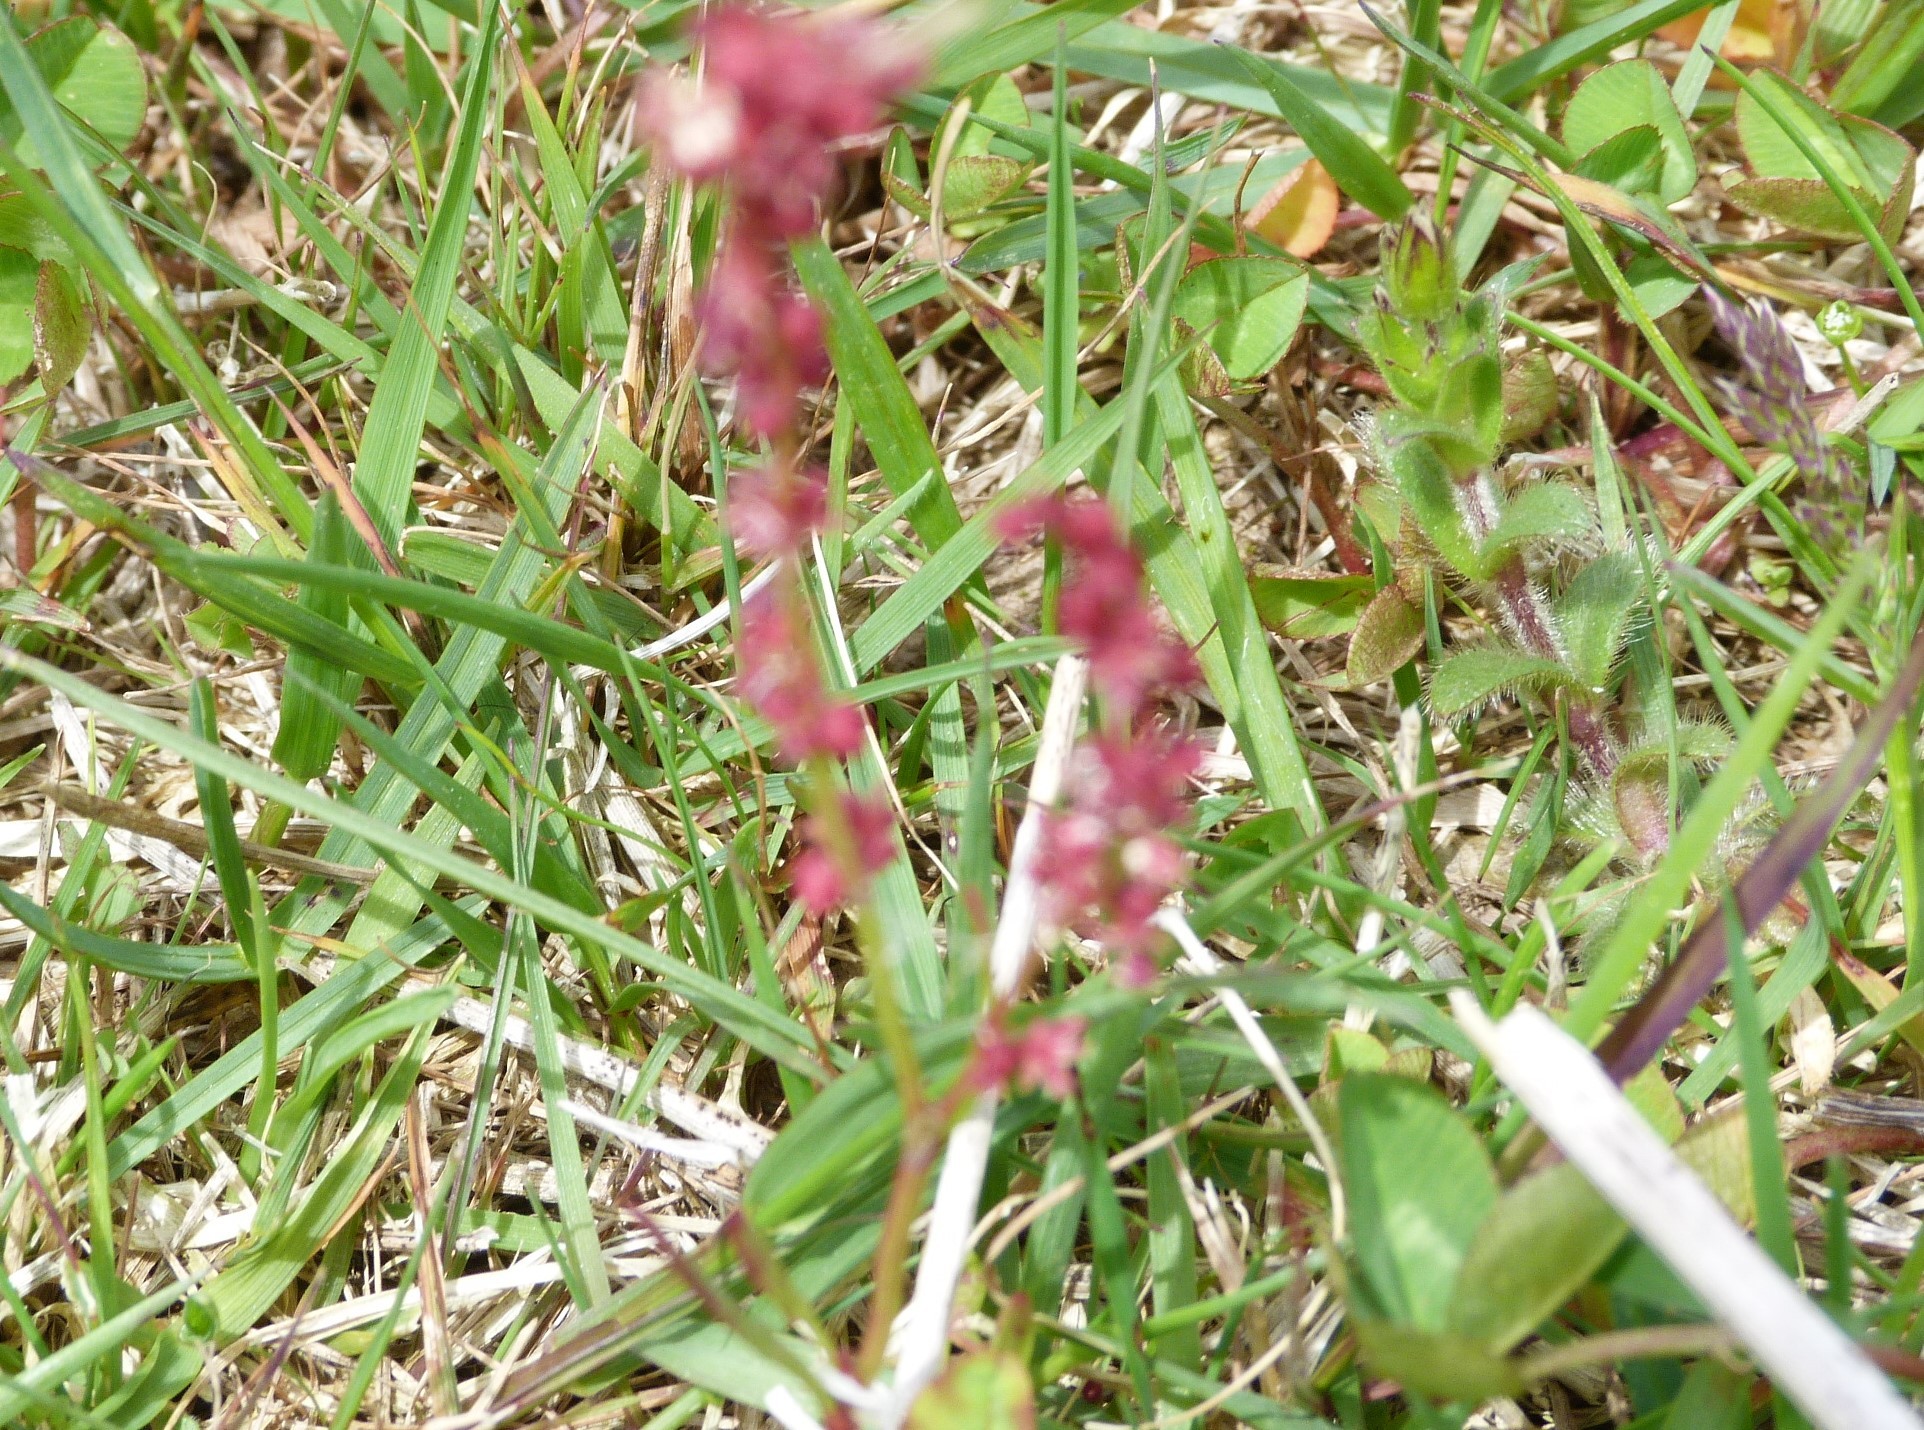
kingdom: Plantae
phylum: Tracheophyta
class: Magnoliopsida
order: Caryophyllales
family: Polygonaceae
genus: Rumex
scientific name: Rumex acetosella
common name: Common sheep sorrel
